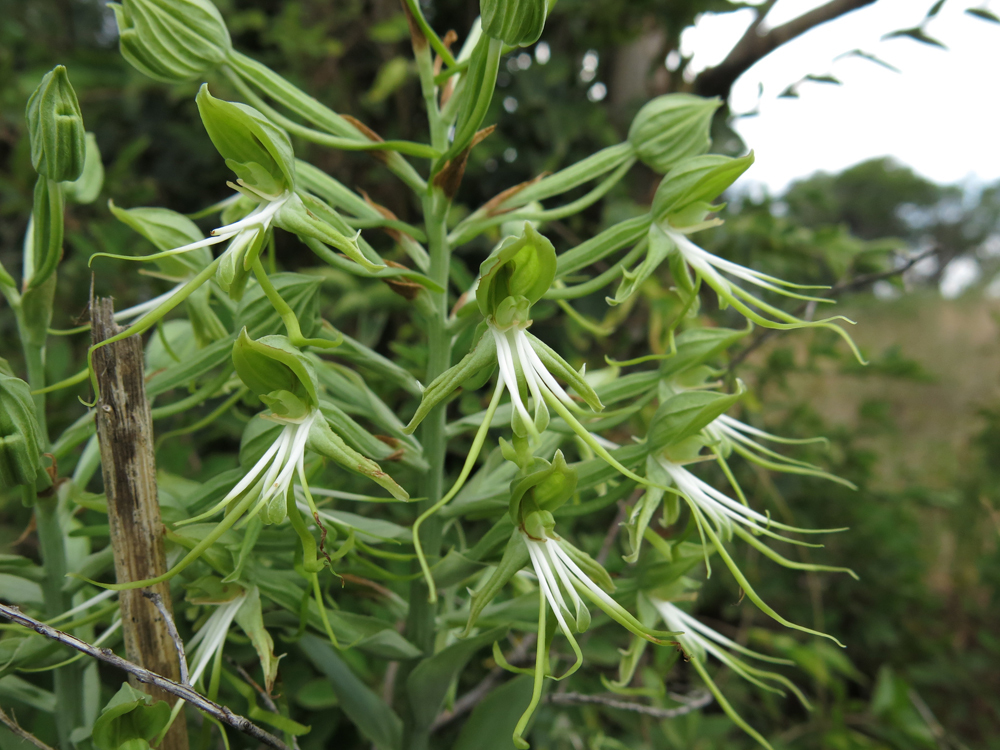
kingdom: Plantae
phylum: Tracheophyta
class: Liliopsida
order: Asparagales
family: Orchidaceae
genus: Bonatea
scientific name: Bonatea antennifera
